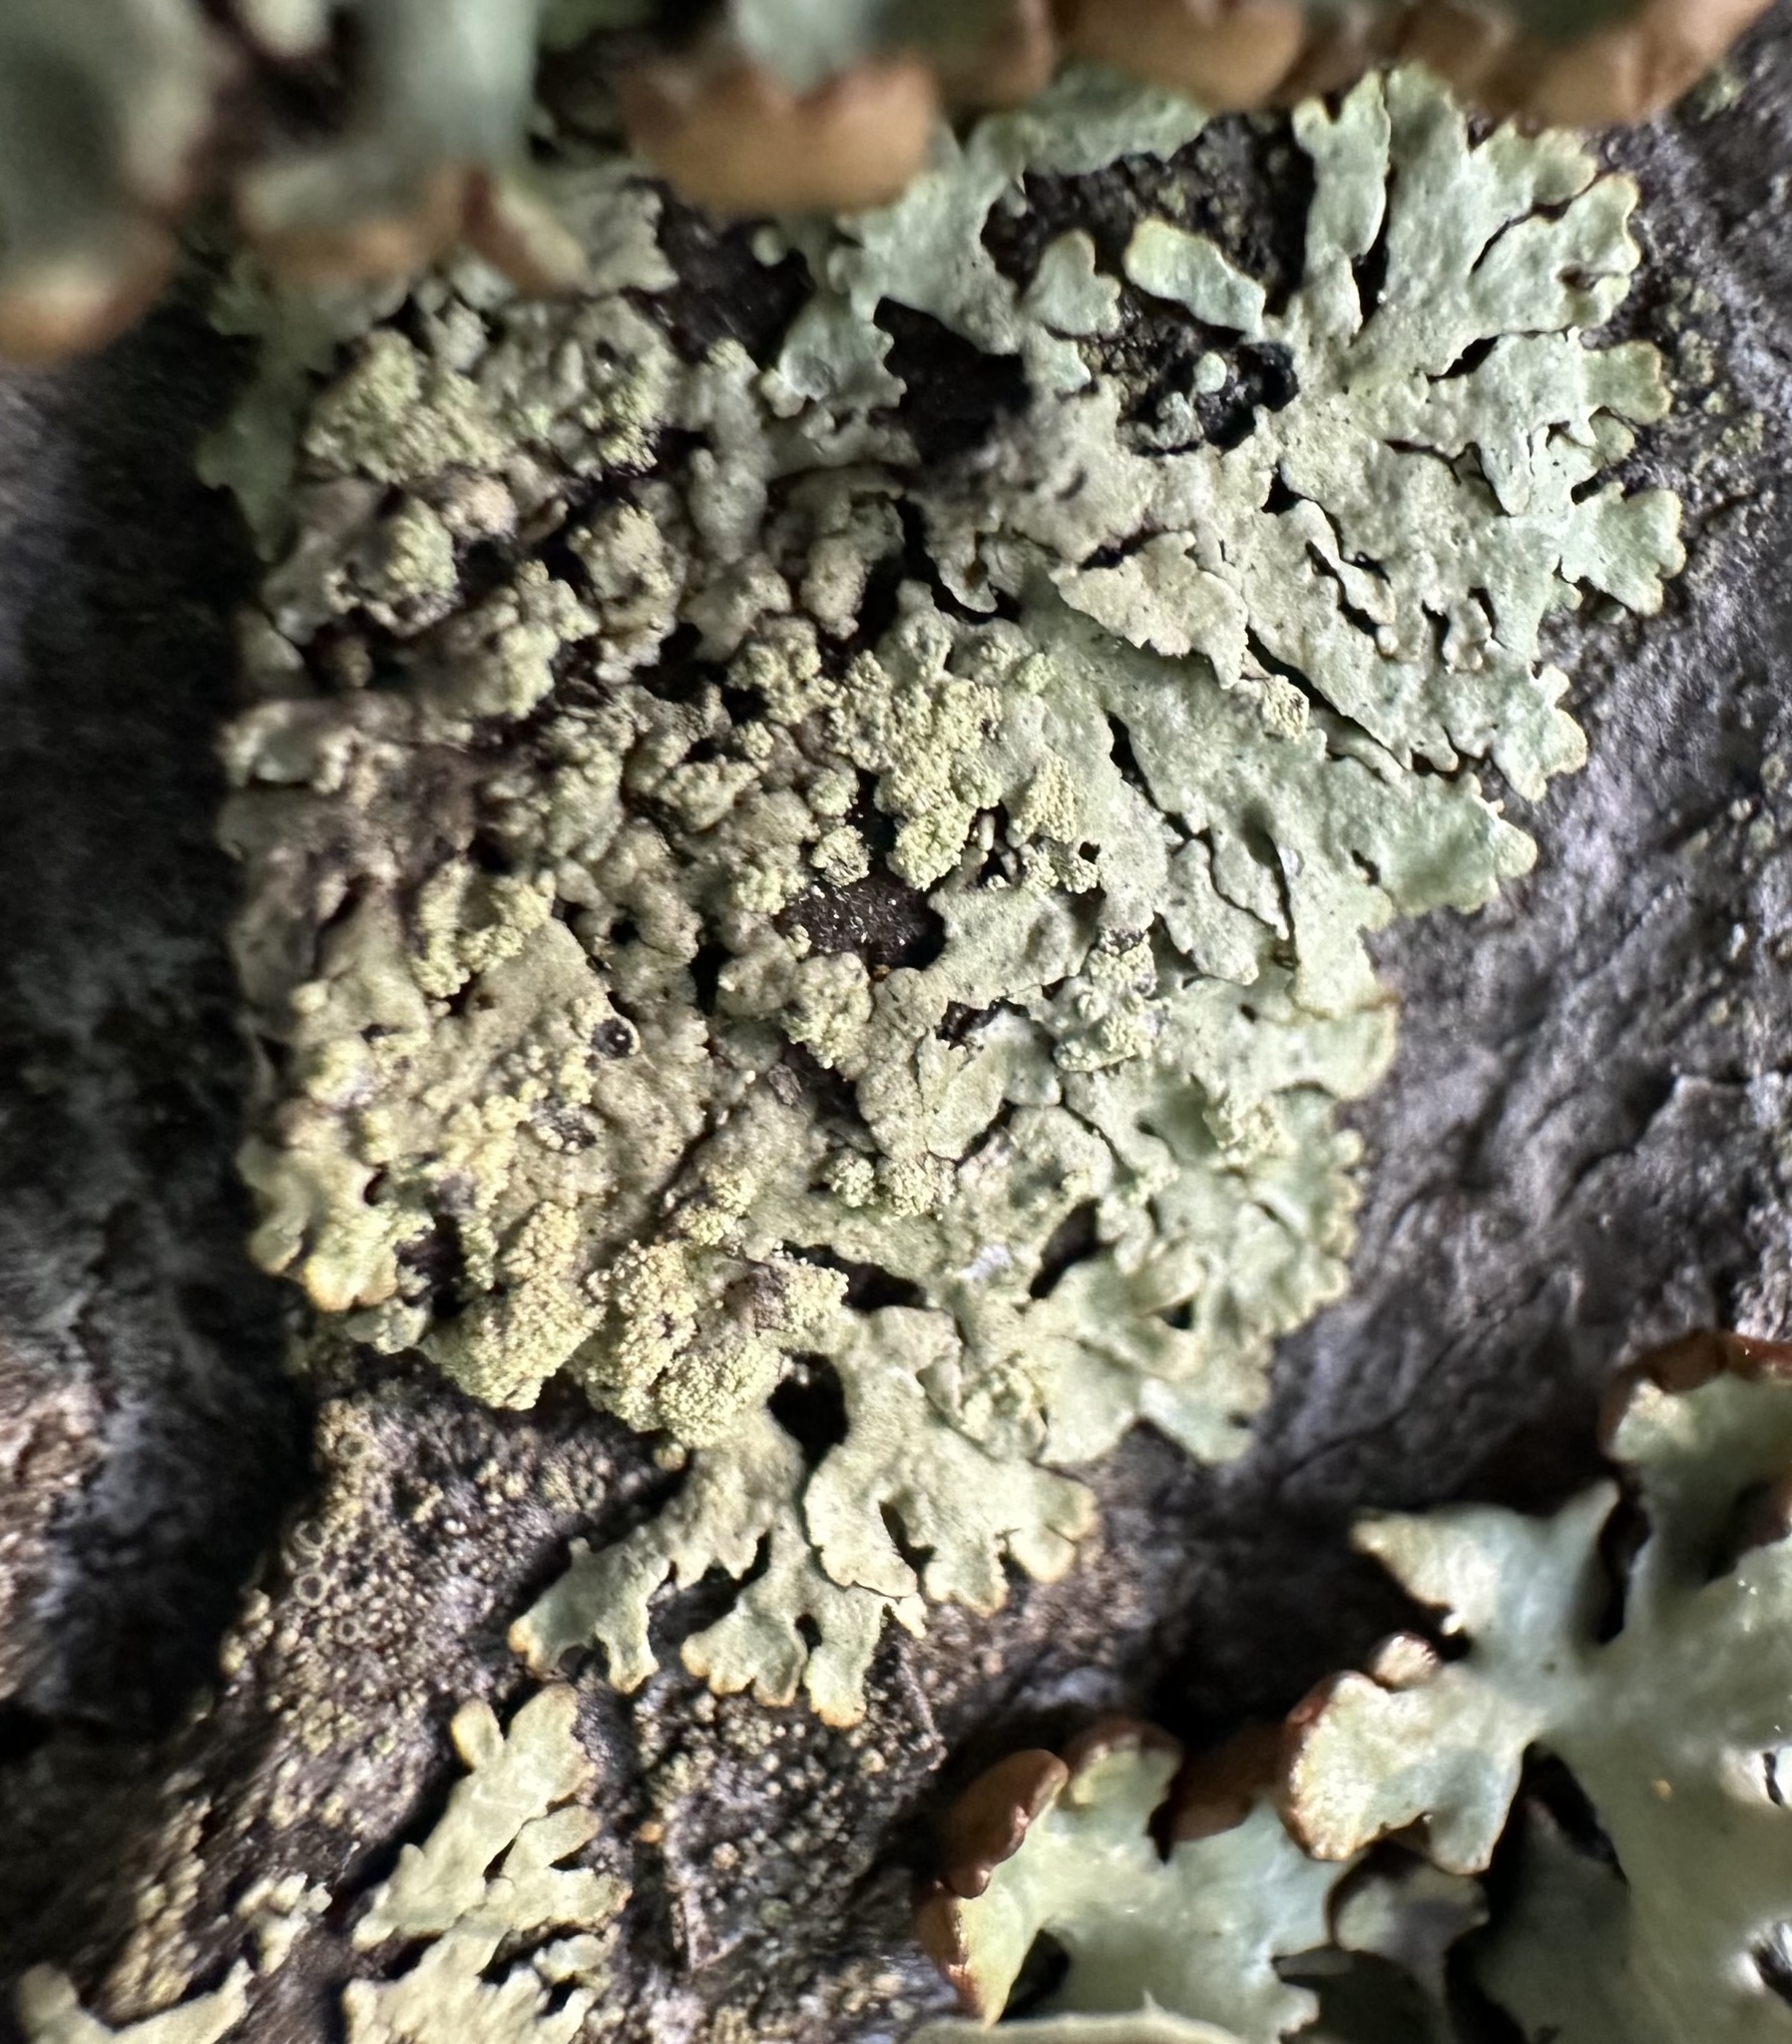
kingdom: Fungi
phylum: Ascomycota
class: Lecanoromycetes
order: Lecanorales
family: Parmeliaceae
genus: Parmeliopsis
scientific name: Parmeliopsis ambigua
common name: Green starburst lichen
